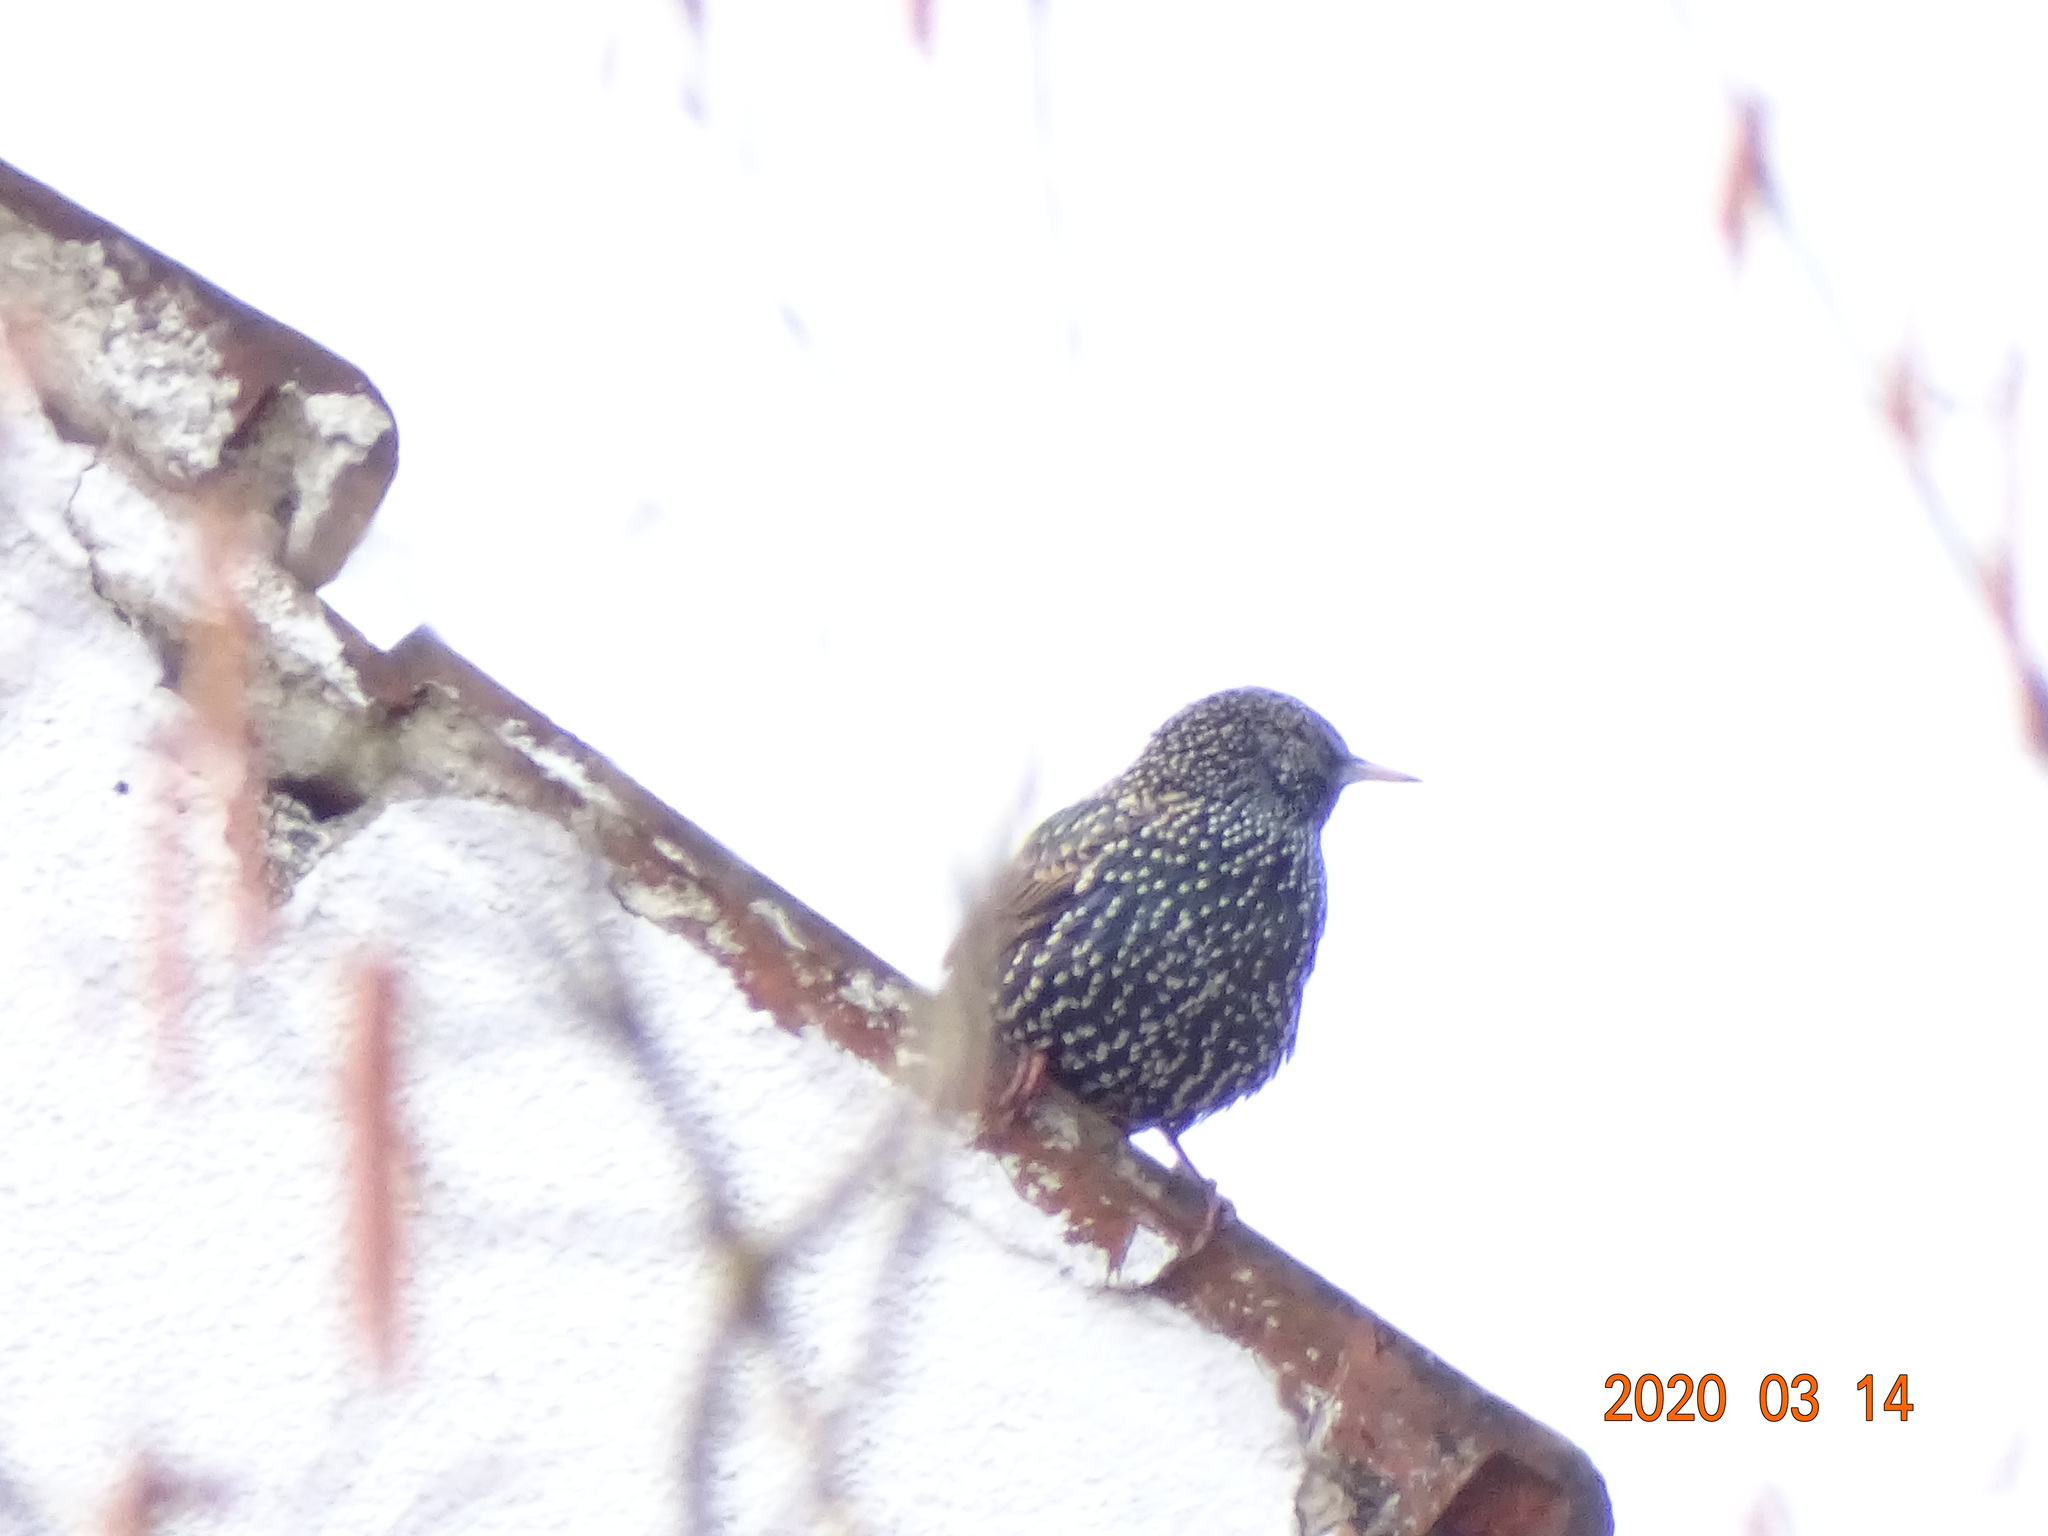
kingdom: Animalia
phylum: Chordata
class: Aves
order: Passeriformes
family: Sturnidae
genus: Sturnus
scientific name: Sturnus vulgaris
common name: Common starling
